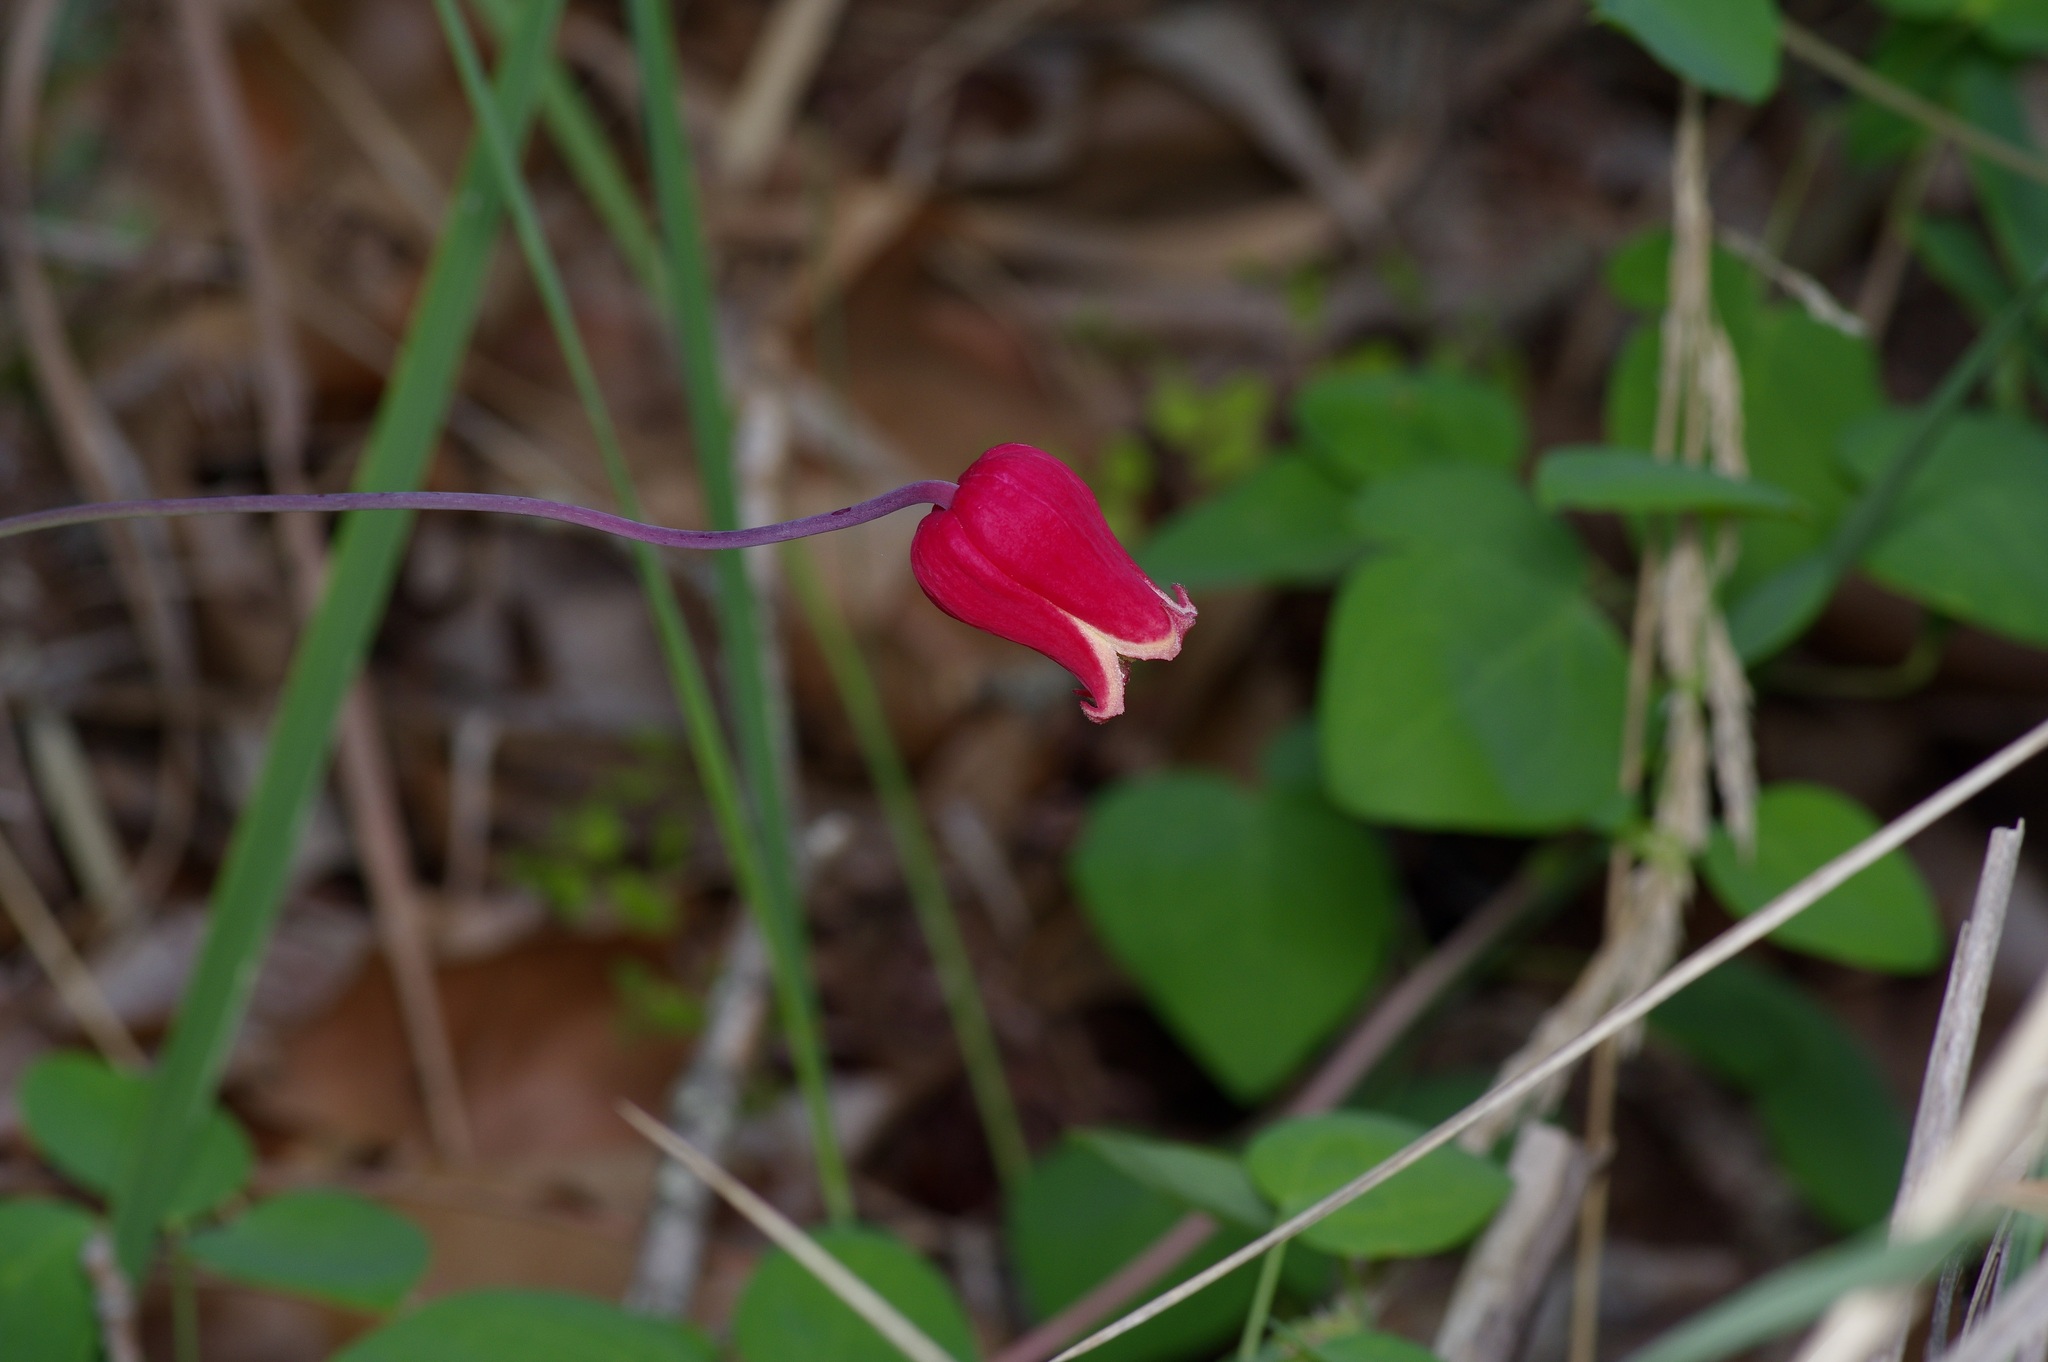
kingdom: Plantae
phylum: Tracheophyta
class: Magnoliopsida
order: Ranunculales
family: Ranunculaceae
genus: Clematis
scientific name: Clematis texensis
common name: Crimson clematis
